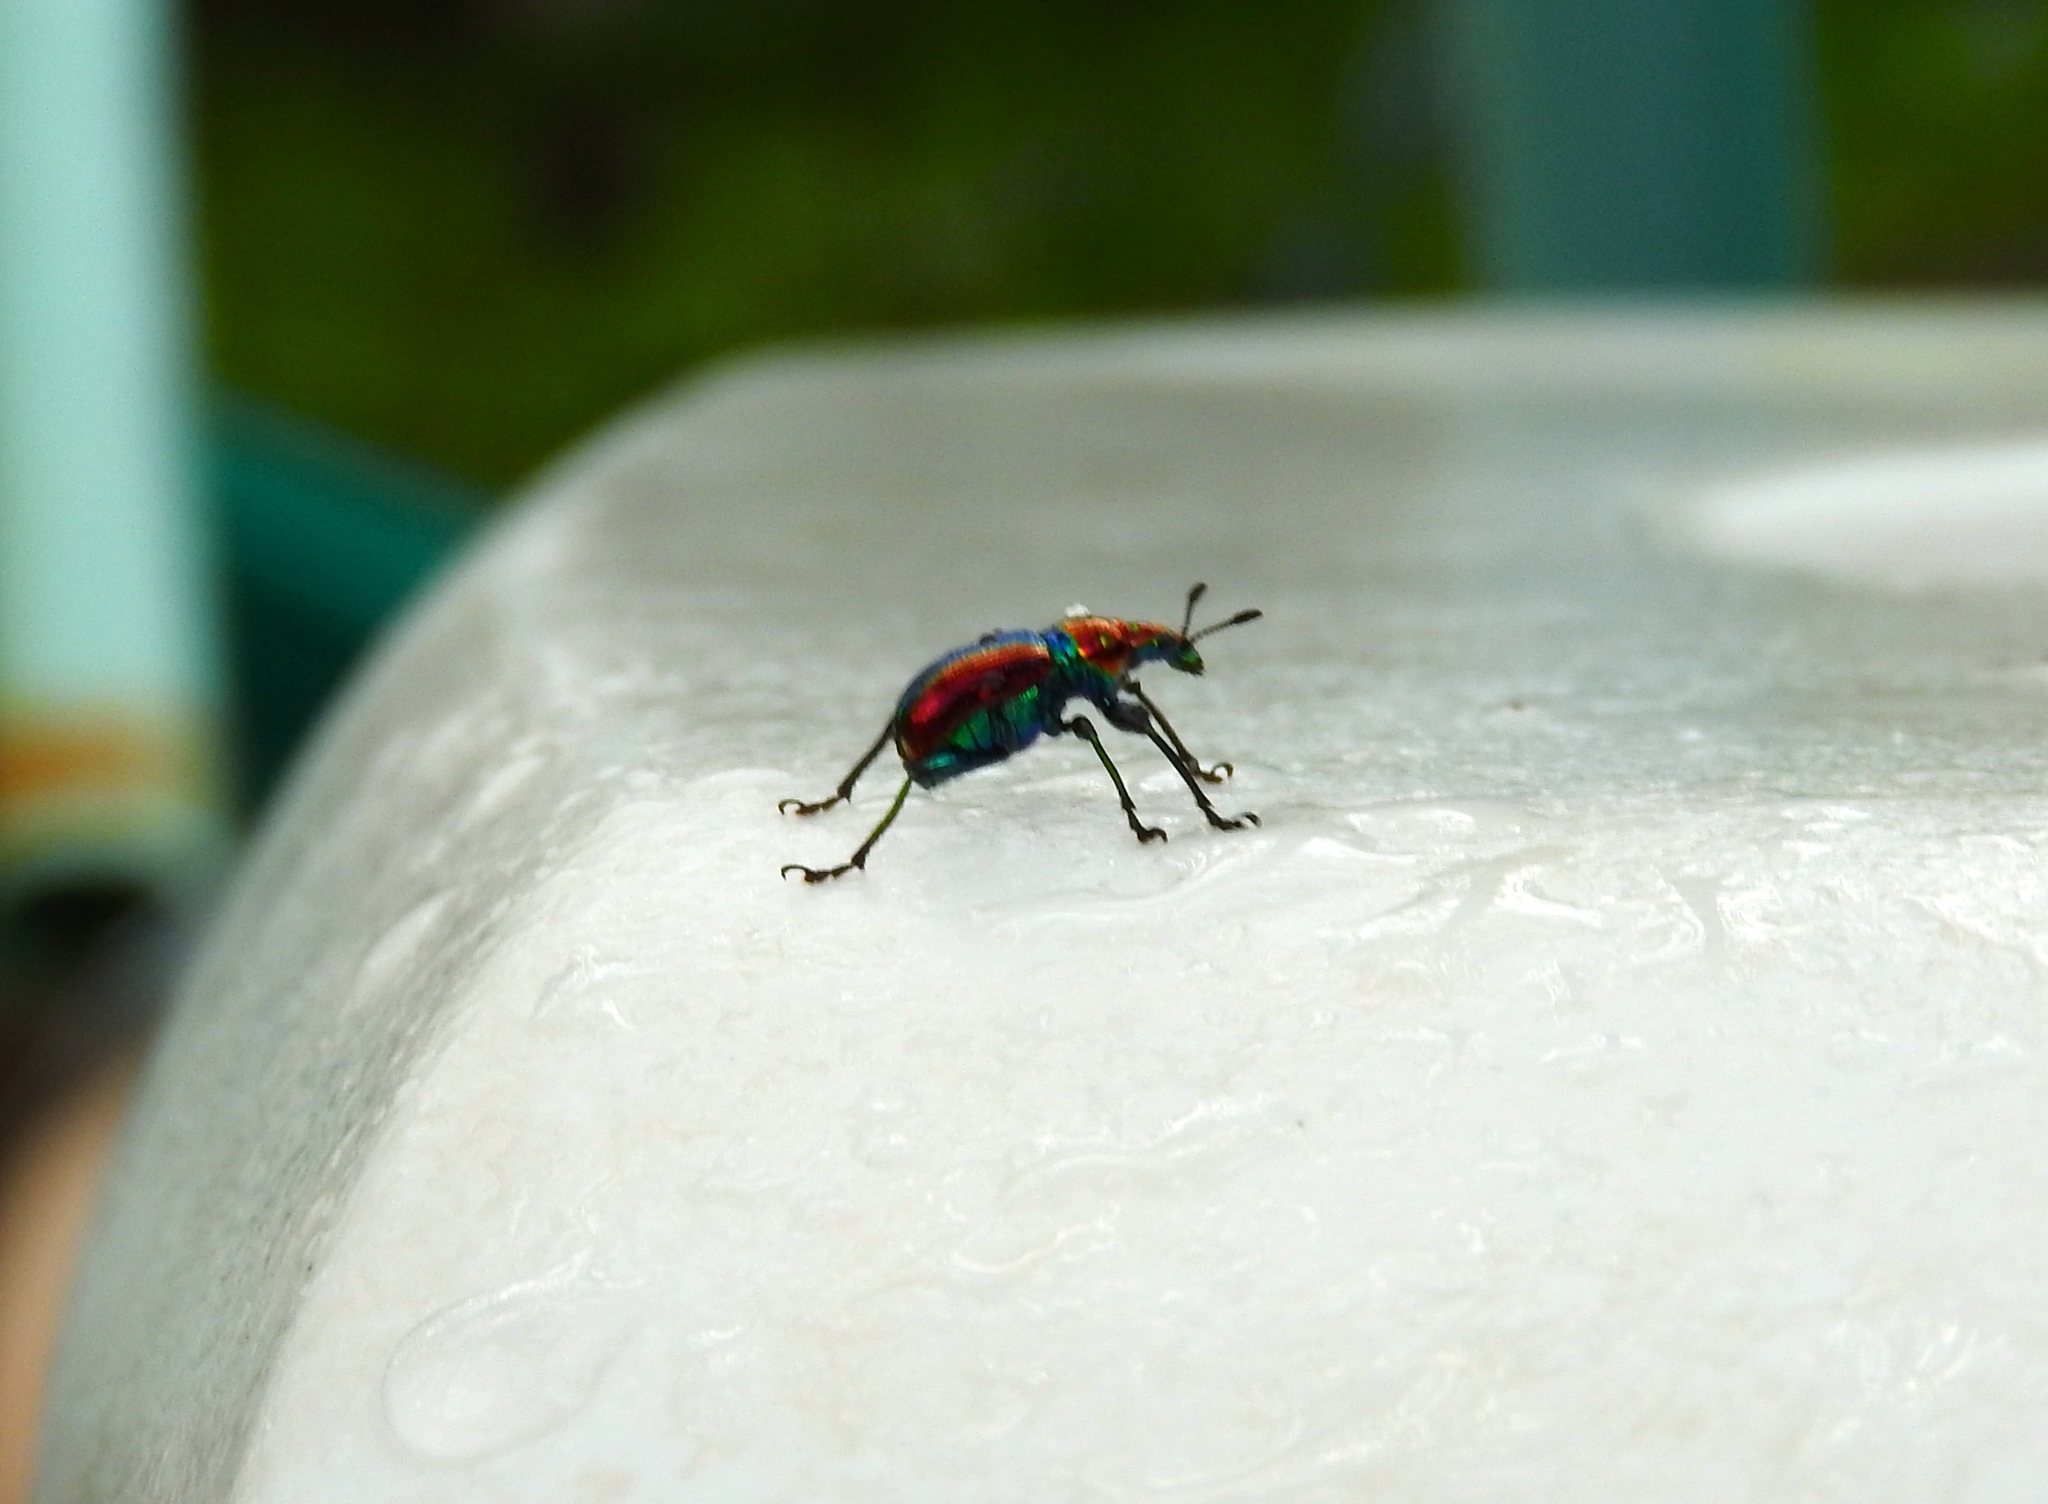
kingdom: Animalia
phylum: Arthropoda
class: Insecta
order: Coleoptera
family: Attelabidae
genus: Pilolabus
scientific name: Pilolabus viridans
